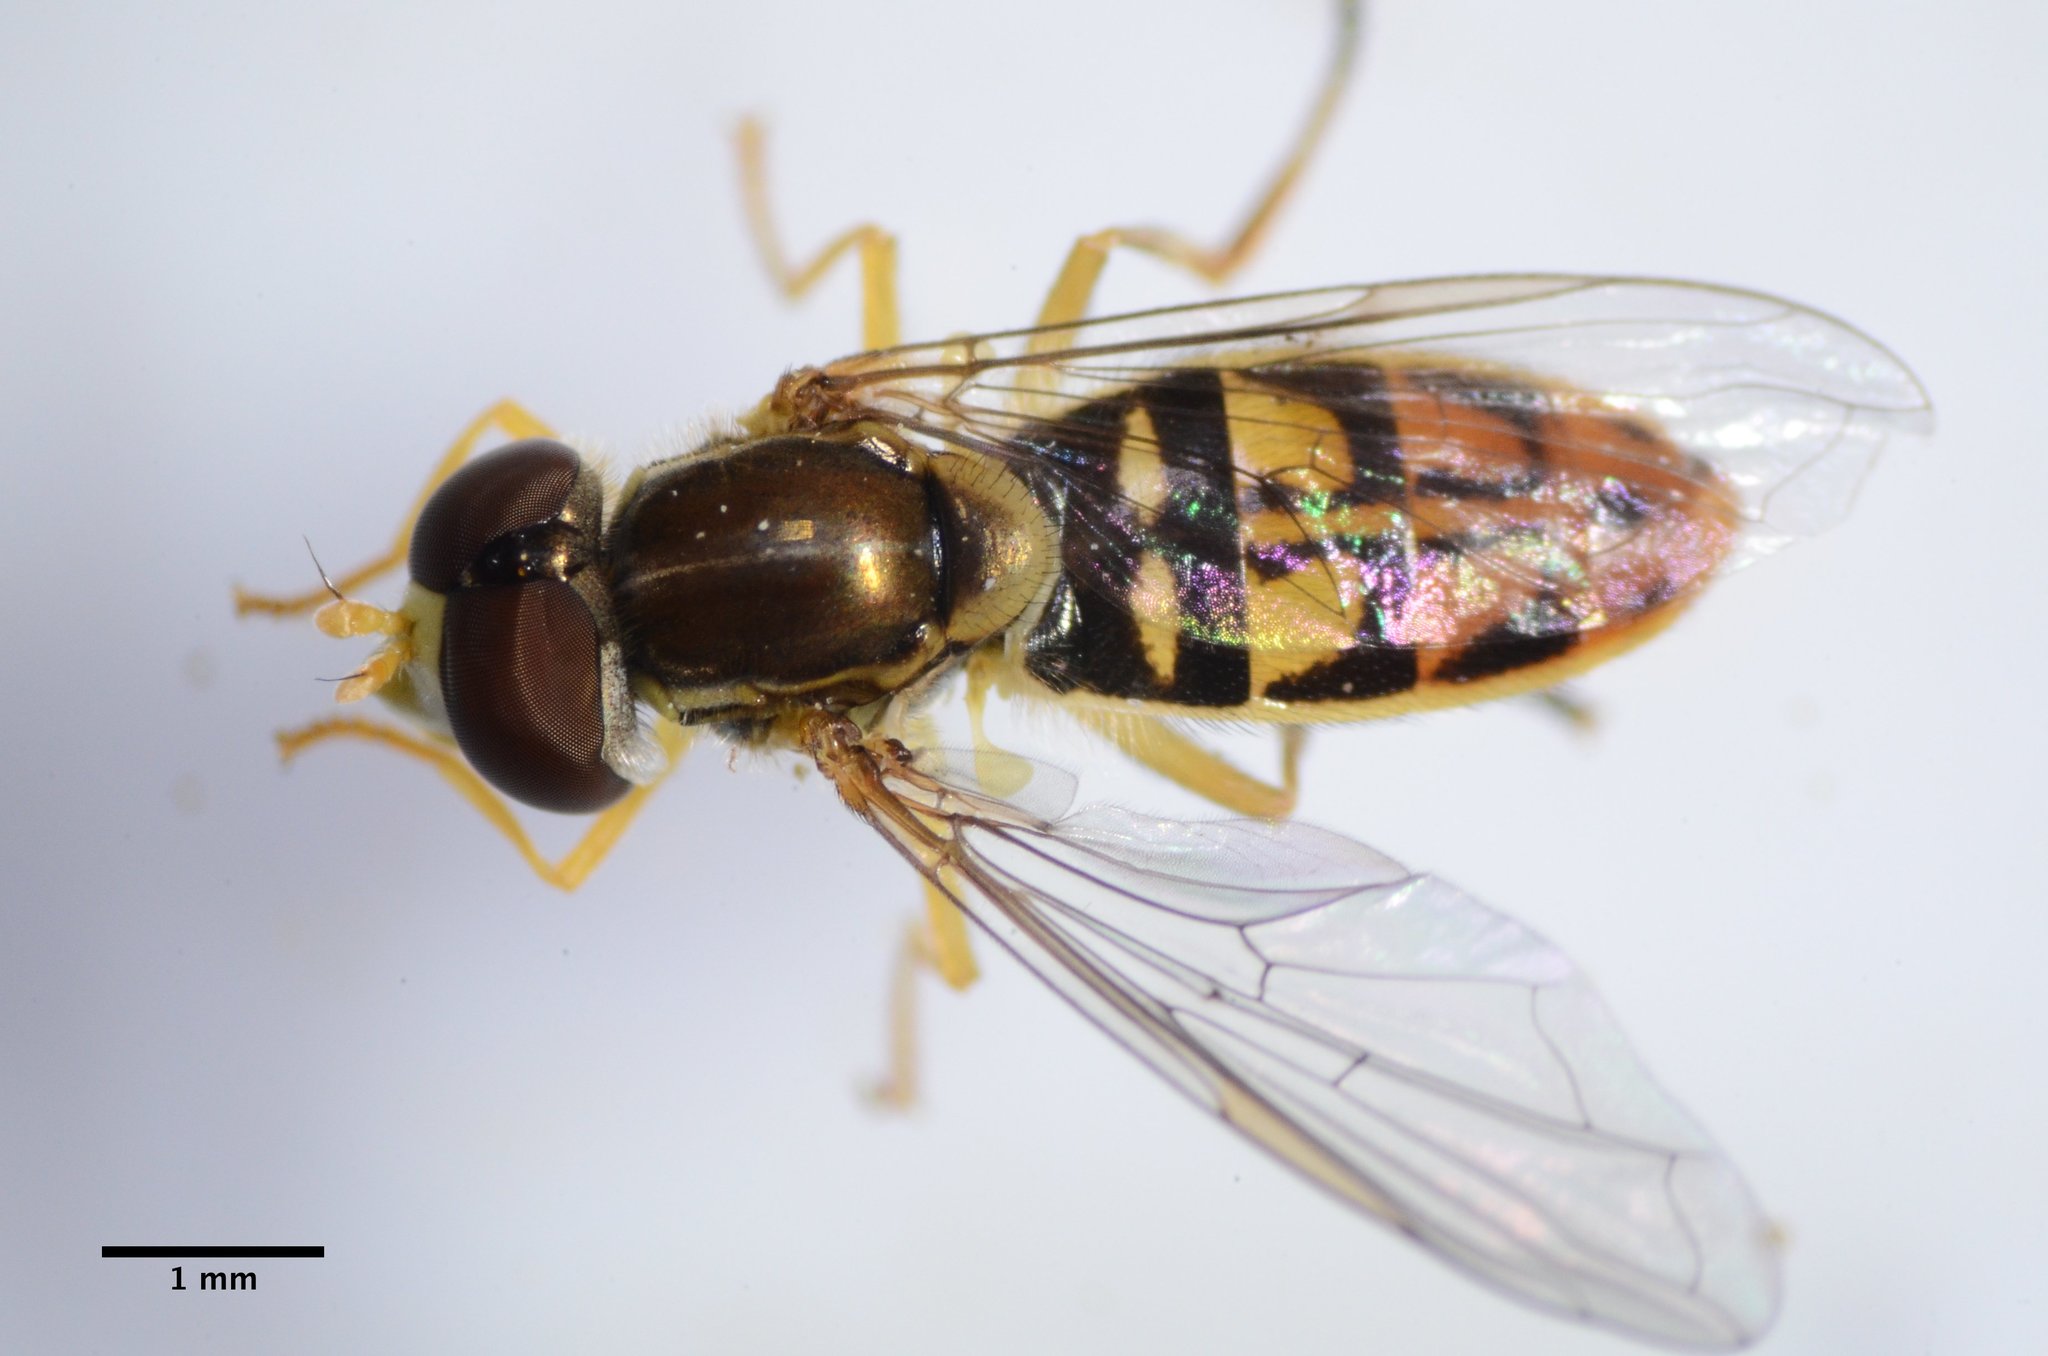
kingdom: Animalia
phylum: Arthropoda
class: Insecta
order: Diptera
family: Syrphidae
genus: Toxomerus
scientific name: Toxomerus marginatus
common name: Syrphid fly
